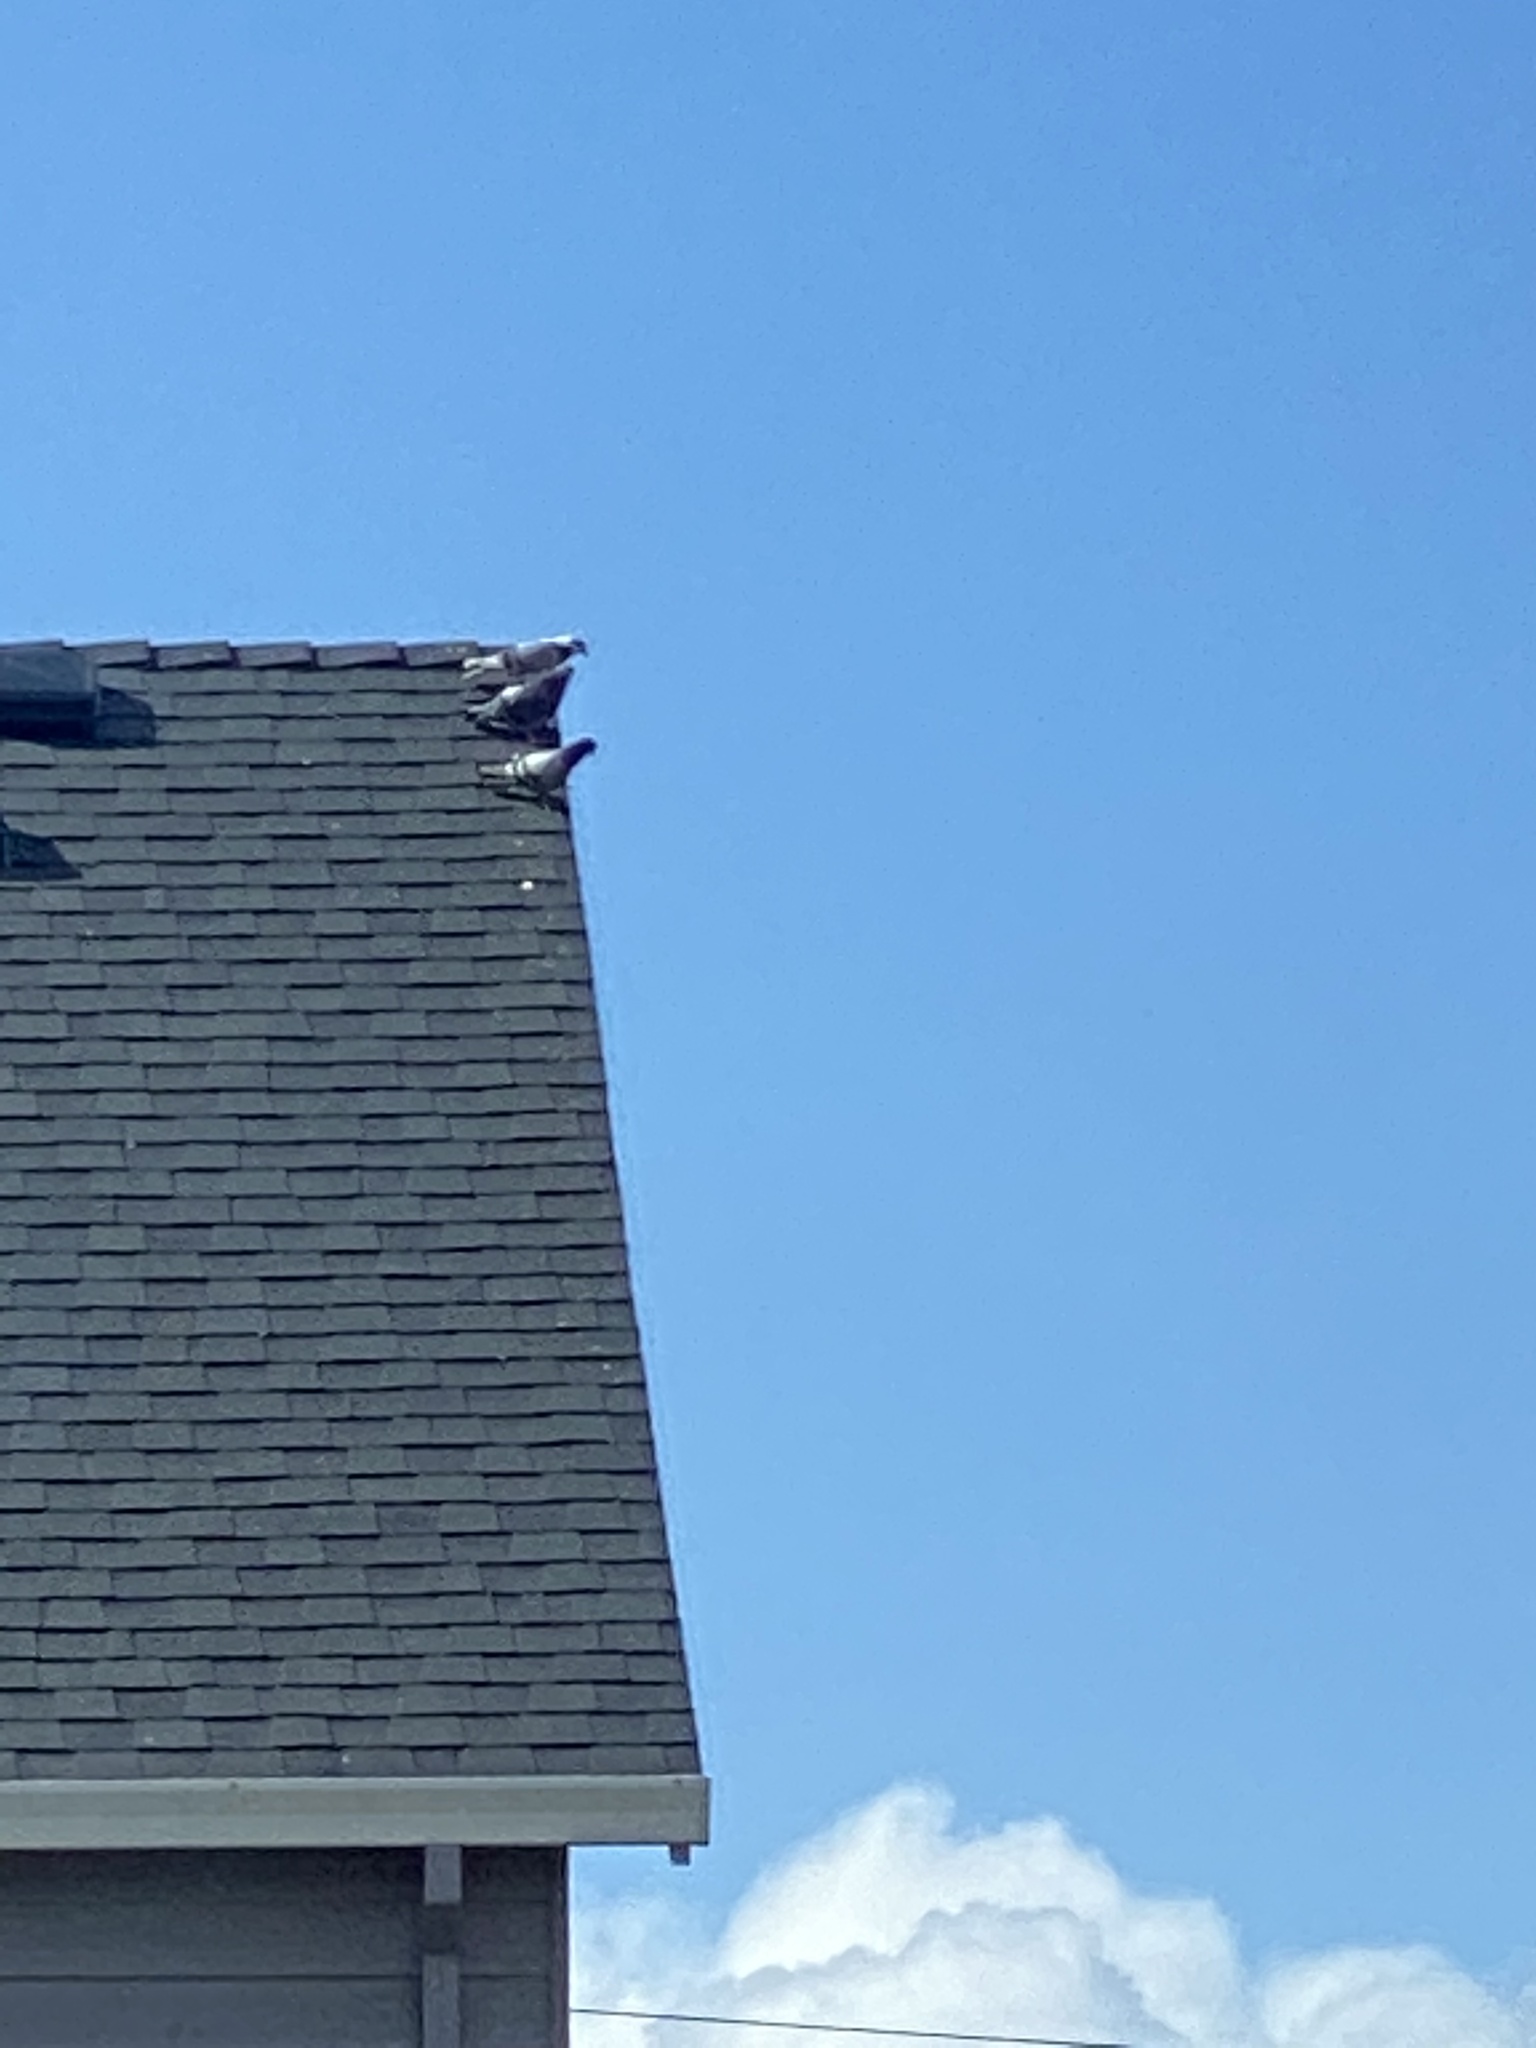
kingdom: Animalia
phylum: Chordata
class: Aves
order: Columbiformes
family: Columbidae
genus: Columba
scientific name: Columba livia
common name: Rock pigeon
